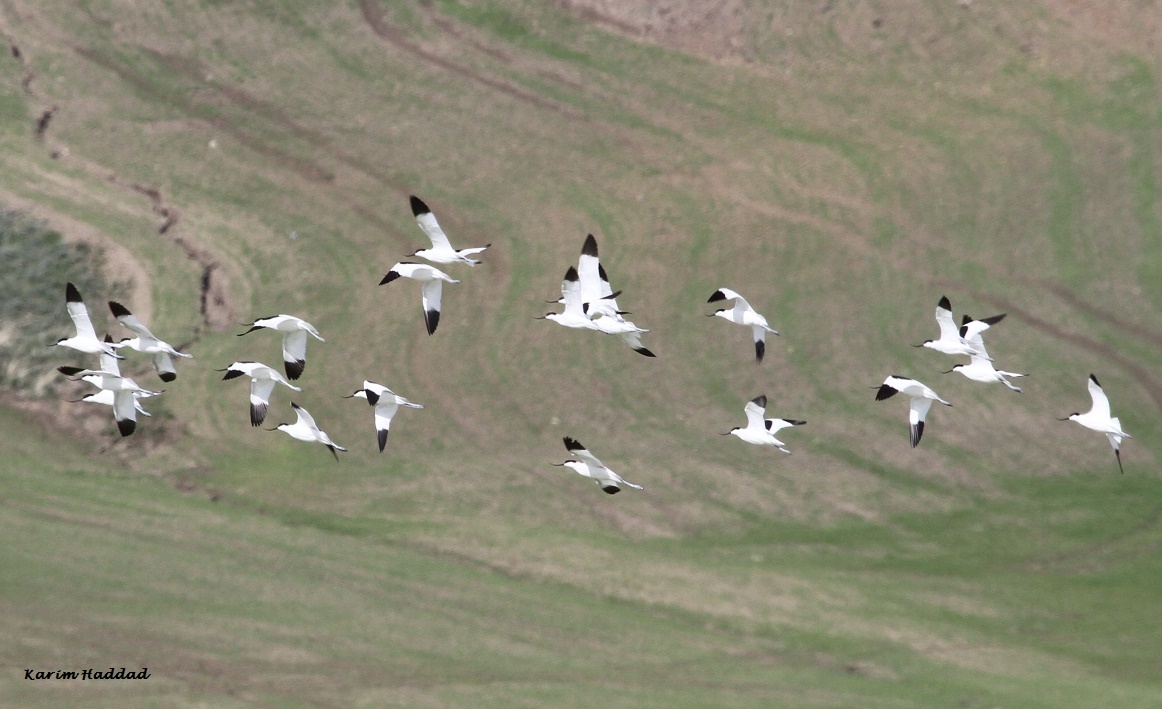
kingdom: Animalia
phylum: Chordata
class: Aves
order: Charadriiformes
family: Recurvirostridae
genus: Recurvirostra
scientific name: Recurvirostra avosetta
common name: Pied avocet
